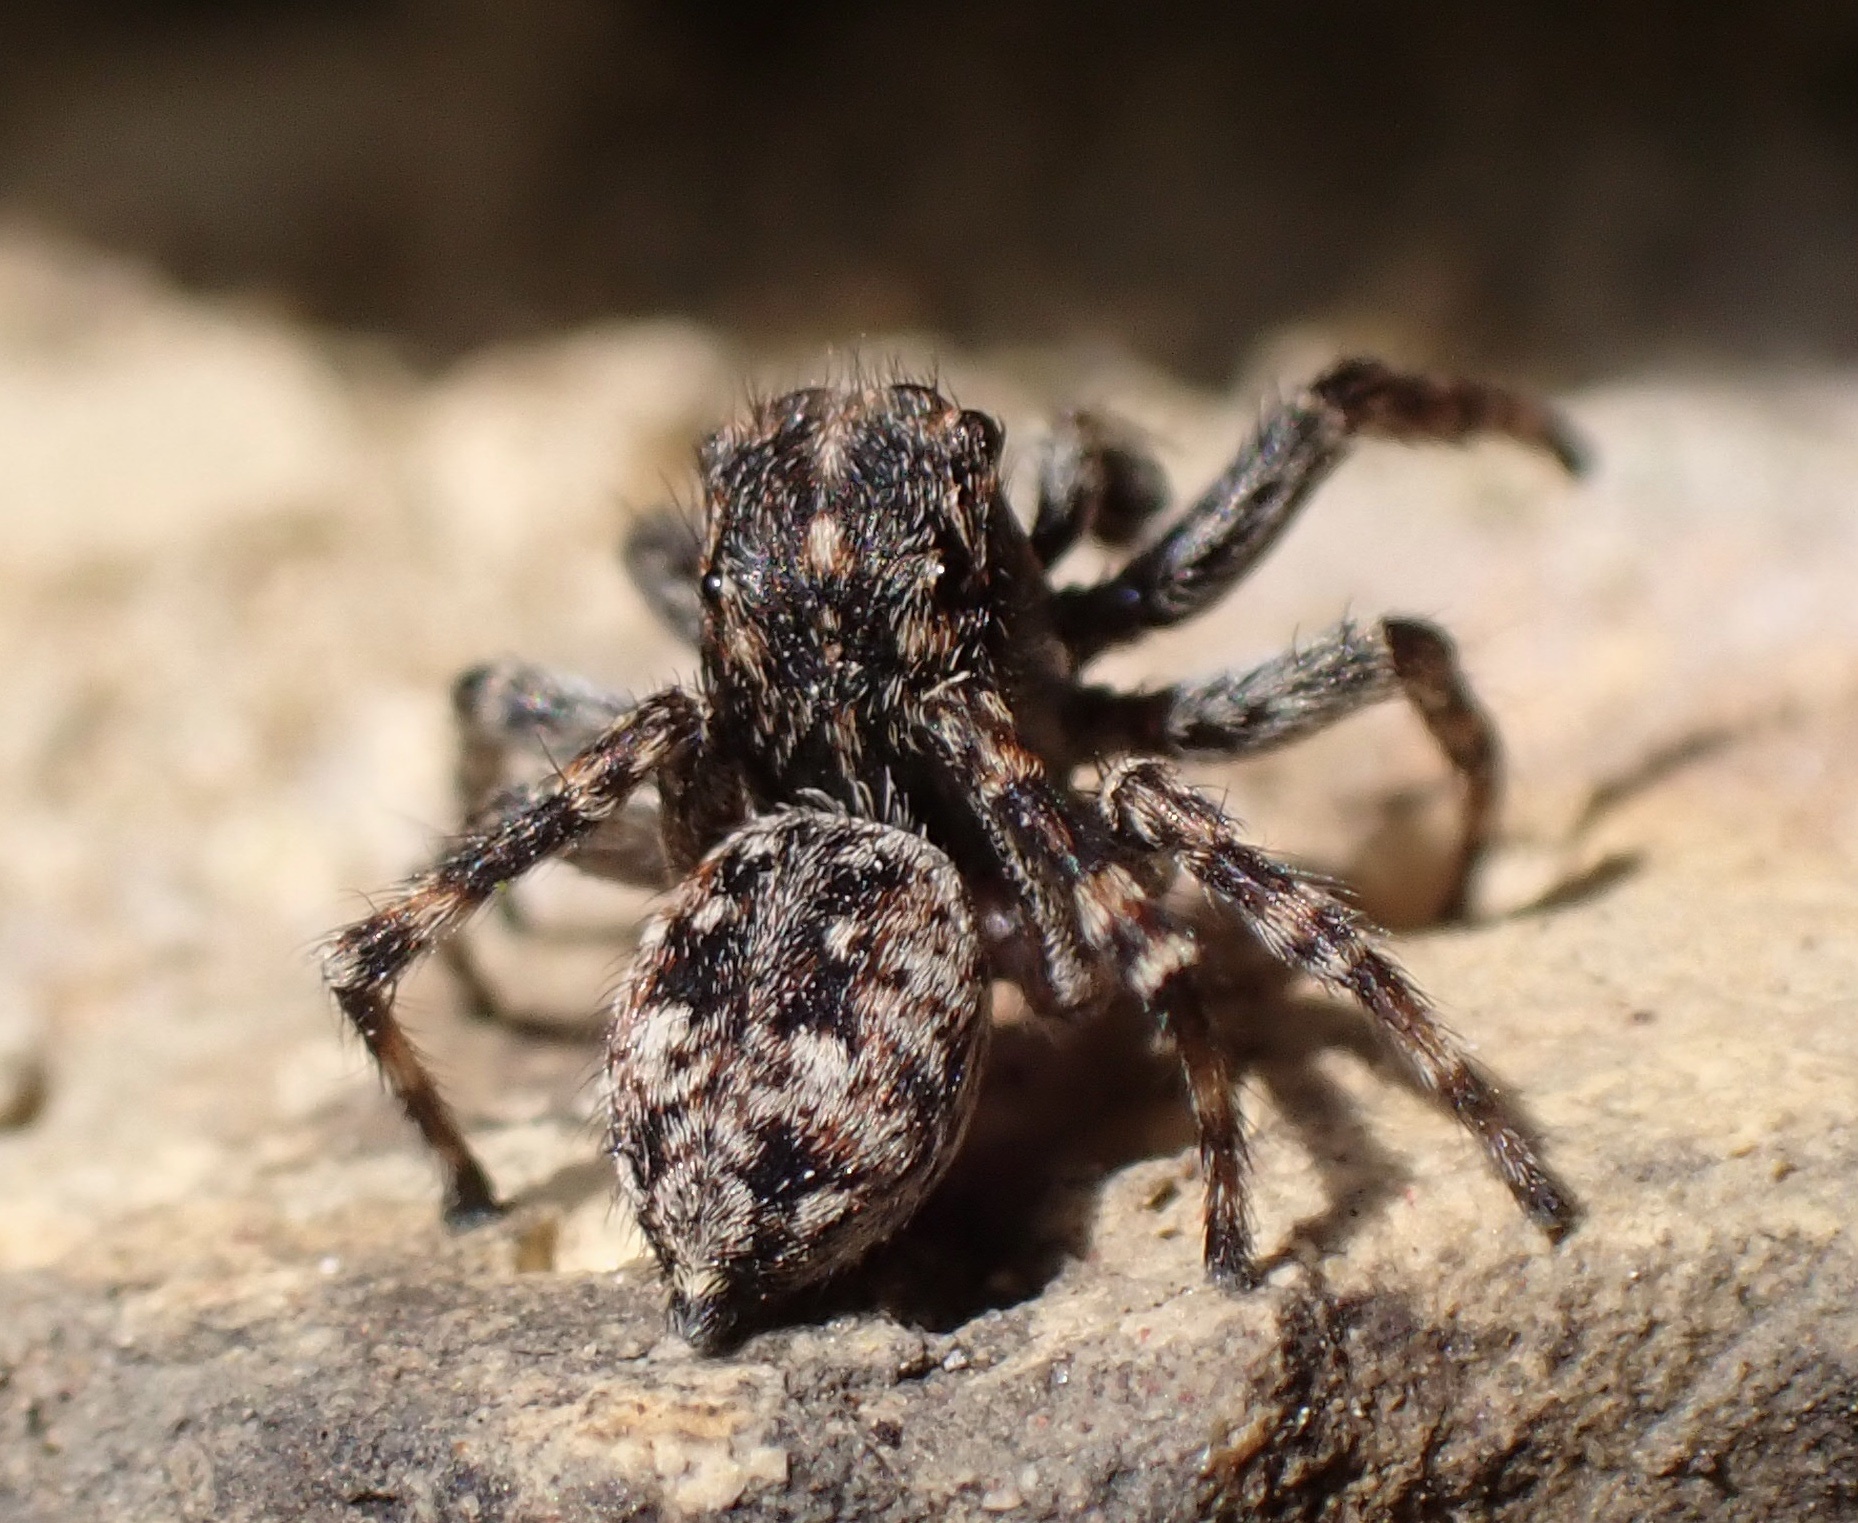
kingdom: Animalia
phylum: Arthropoda
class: Arachnida
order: Araneae
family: Salticidae
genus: Attulus
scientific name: Attulus pubescens
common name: Jumping spider
